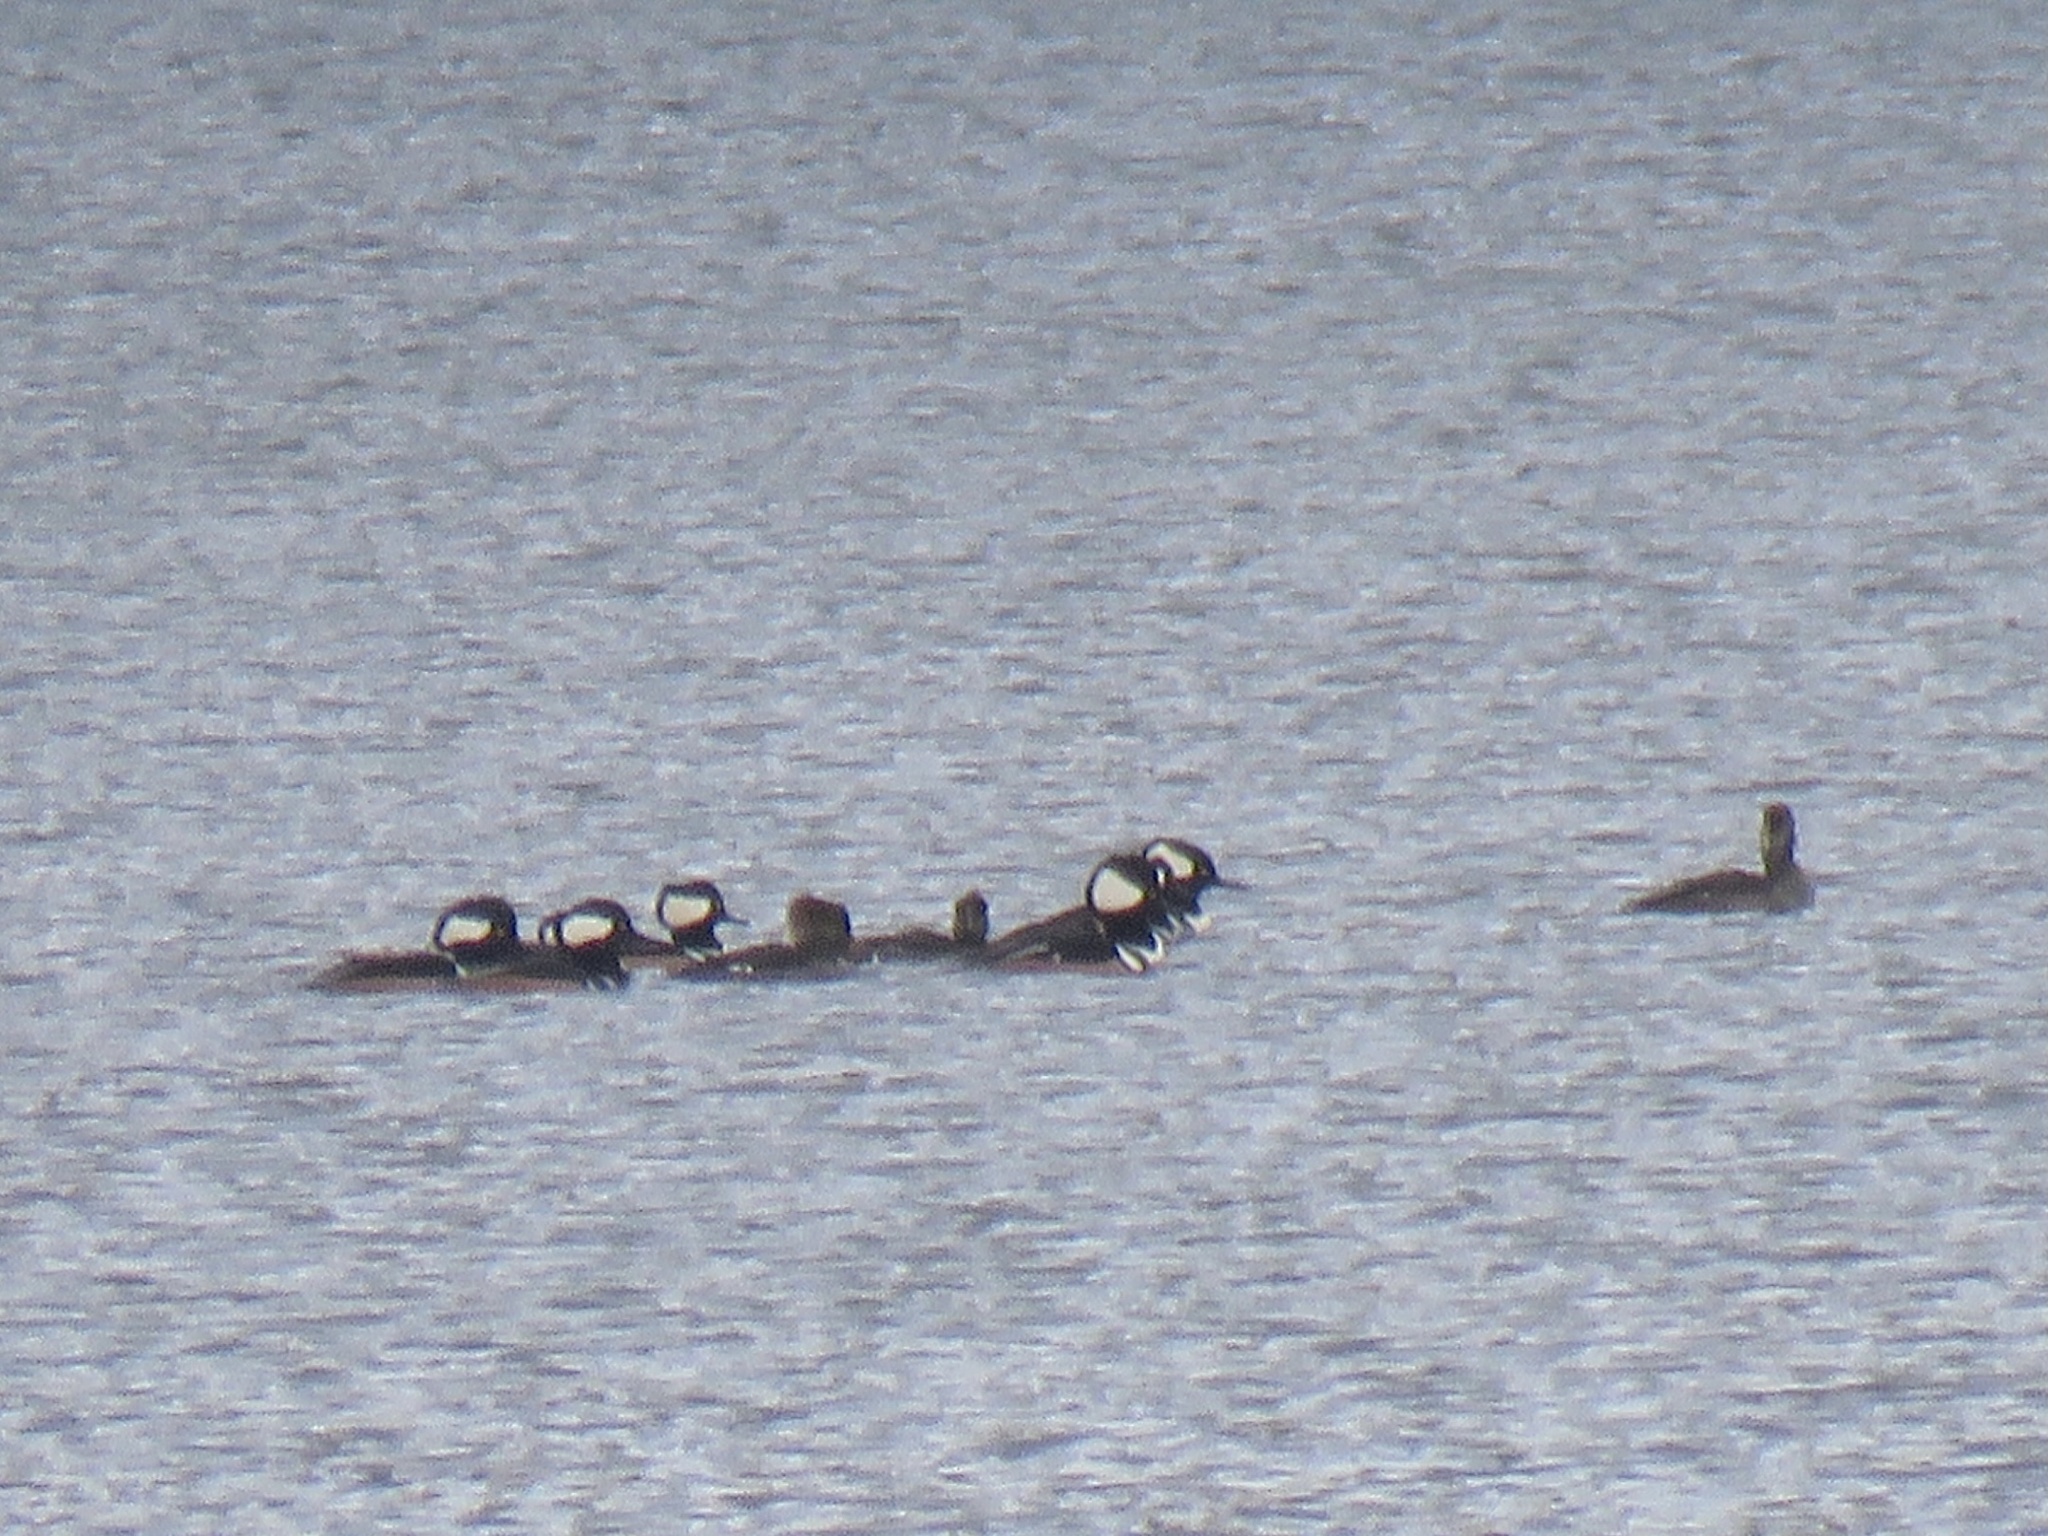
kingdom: Animalia
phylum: Chordata
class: Aves
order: Anseriformes
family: Anatidae
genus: Lophodytes
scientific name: Lophodytes cucullatus
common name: Hooded merganser
